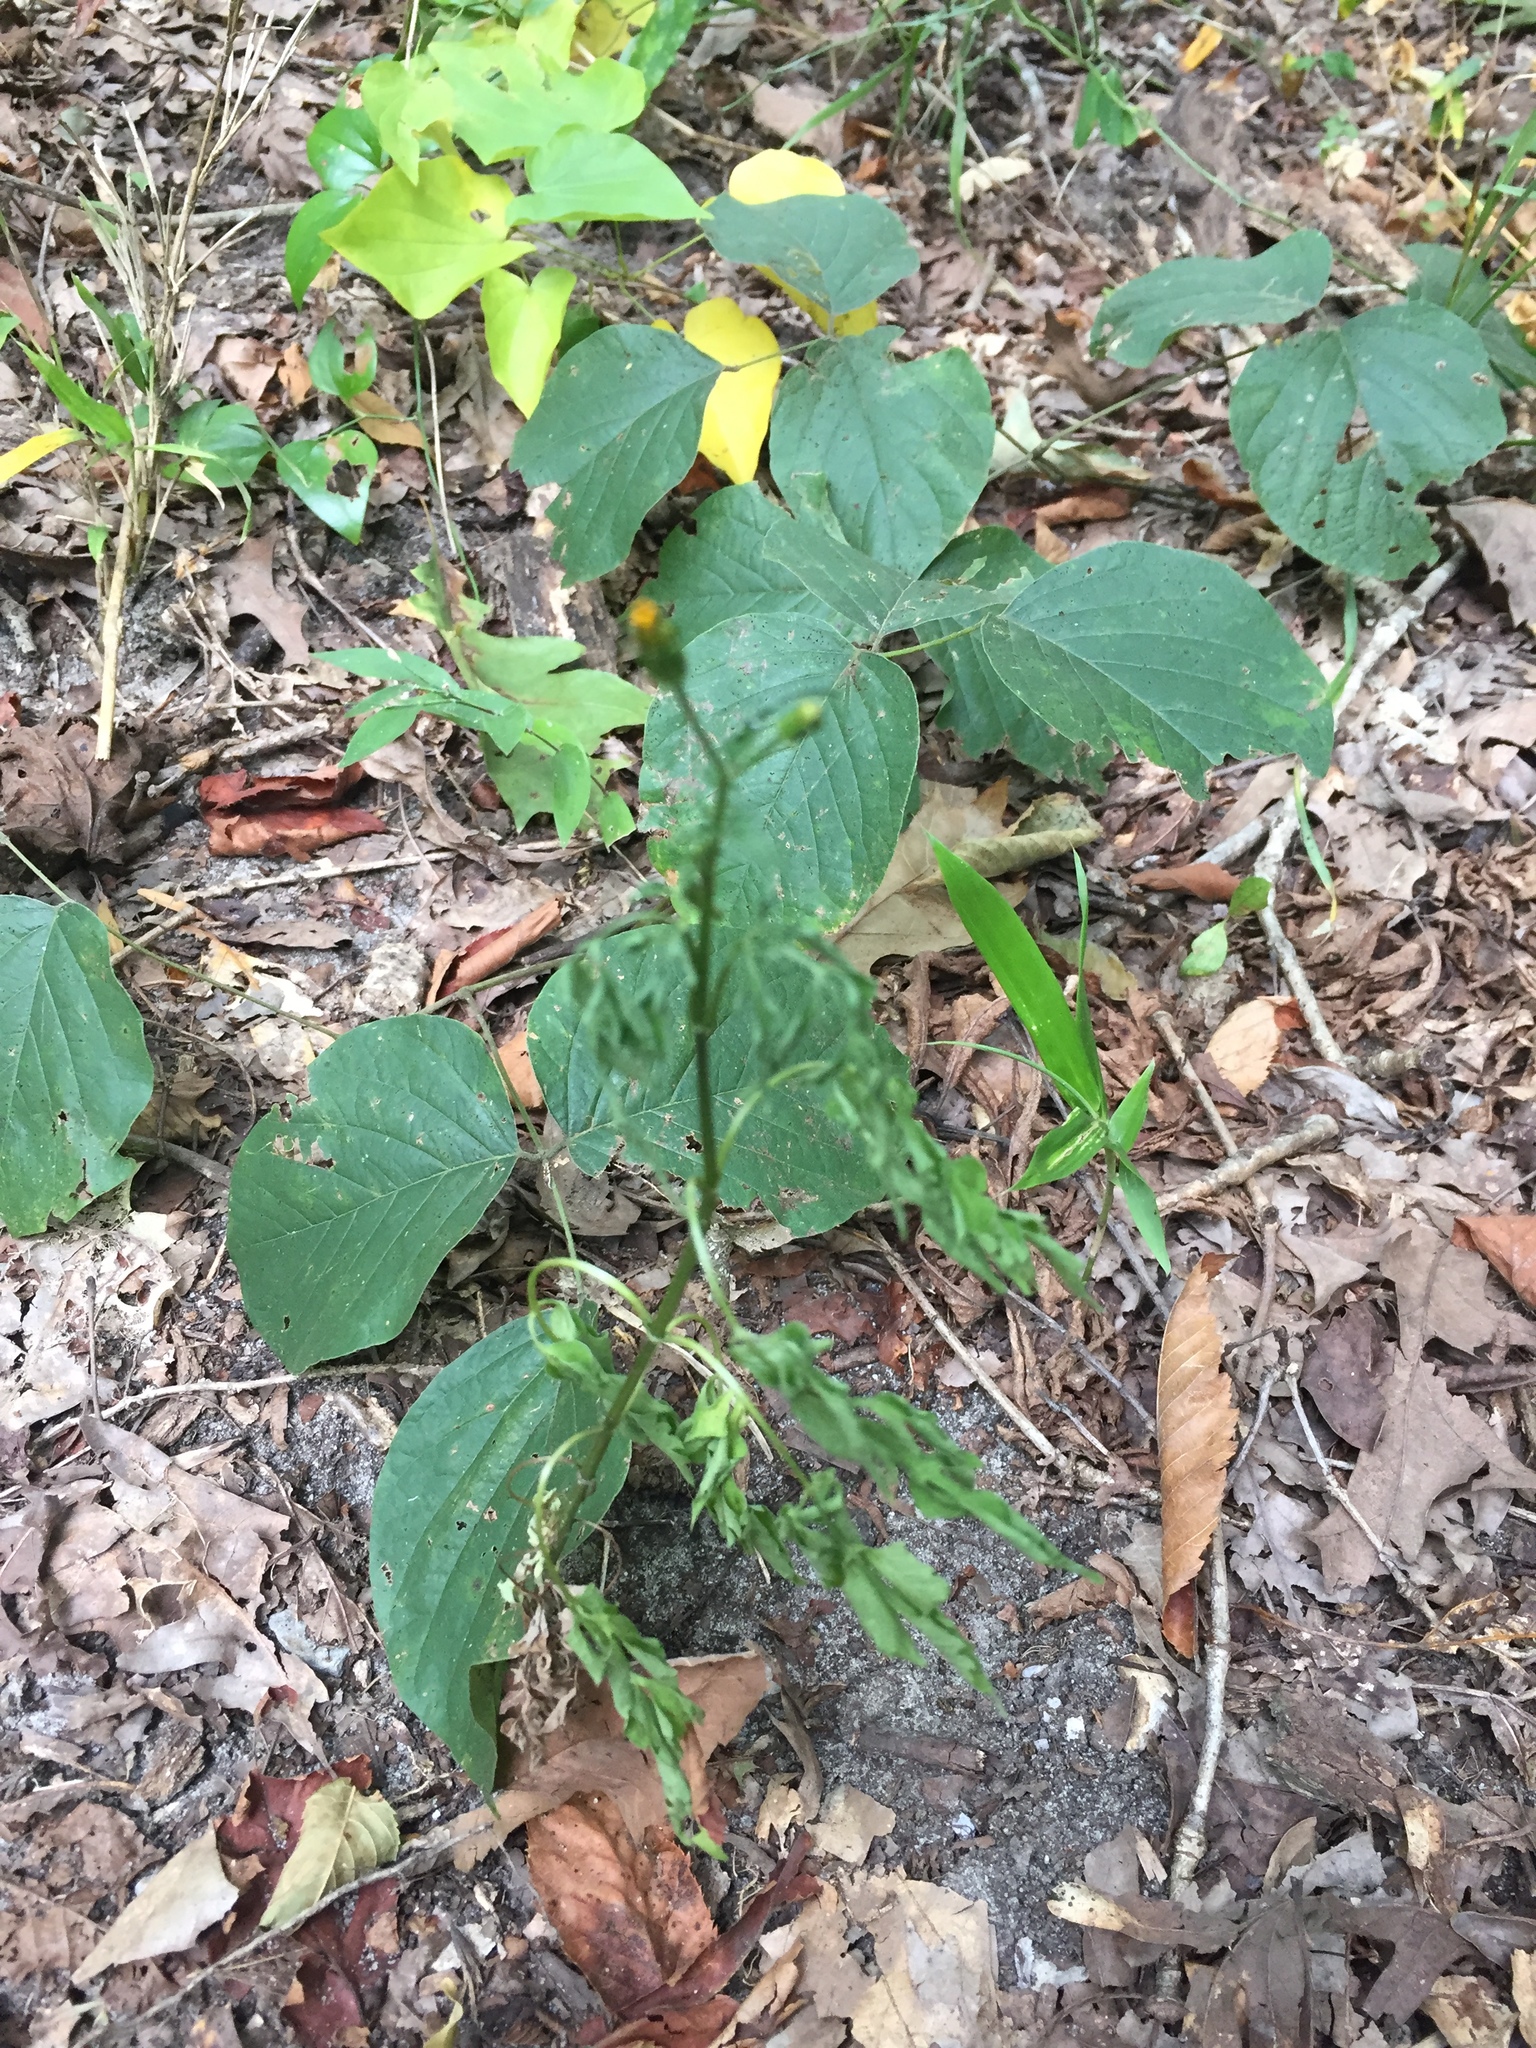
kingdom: Plantae
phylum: Tracheophyta
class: Magnoliopsida
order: Asterales
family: Asteraceae
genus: Bidens
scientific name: Bidens bipinnata
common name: Spanish-needles
